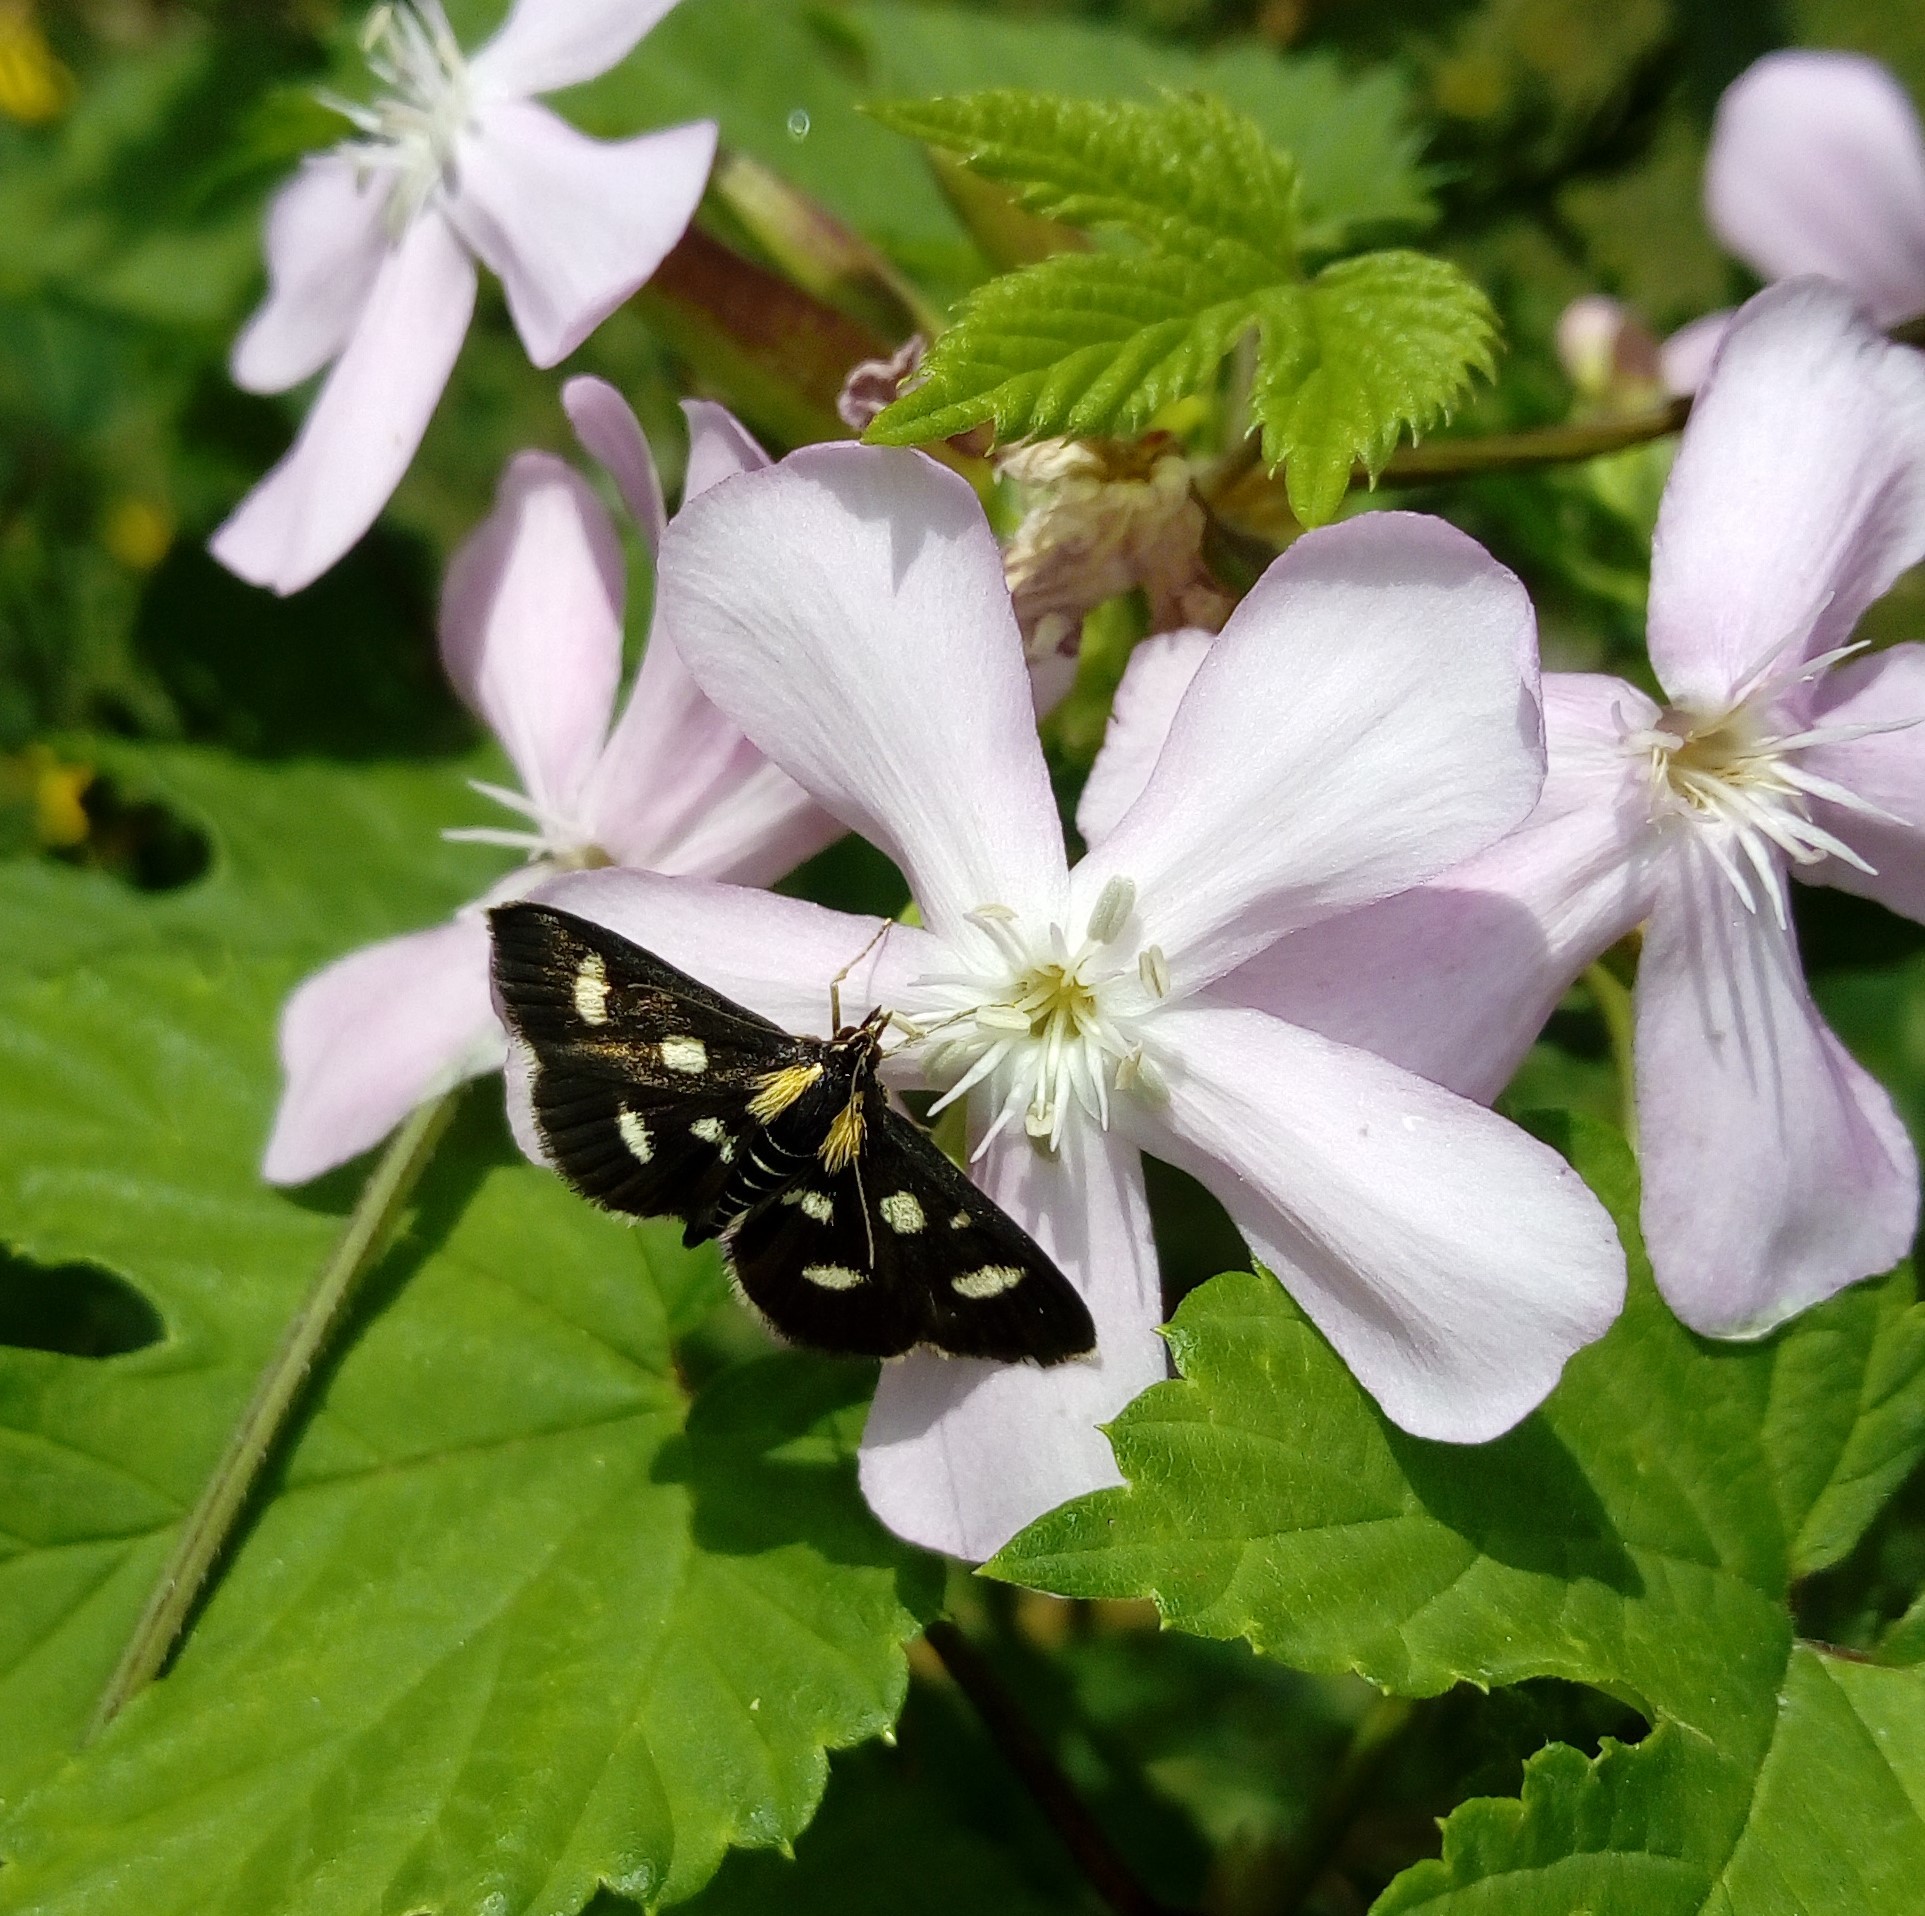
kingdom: Animalia
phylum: Arthropoda
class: Insecta
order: Lepidoptera
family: Crambidae
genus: Anania
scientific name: Anania funebris
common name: White-spotted sable moth
